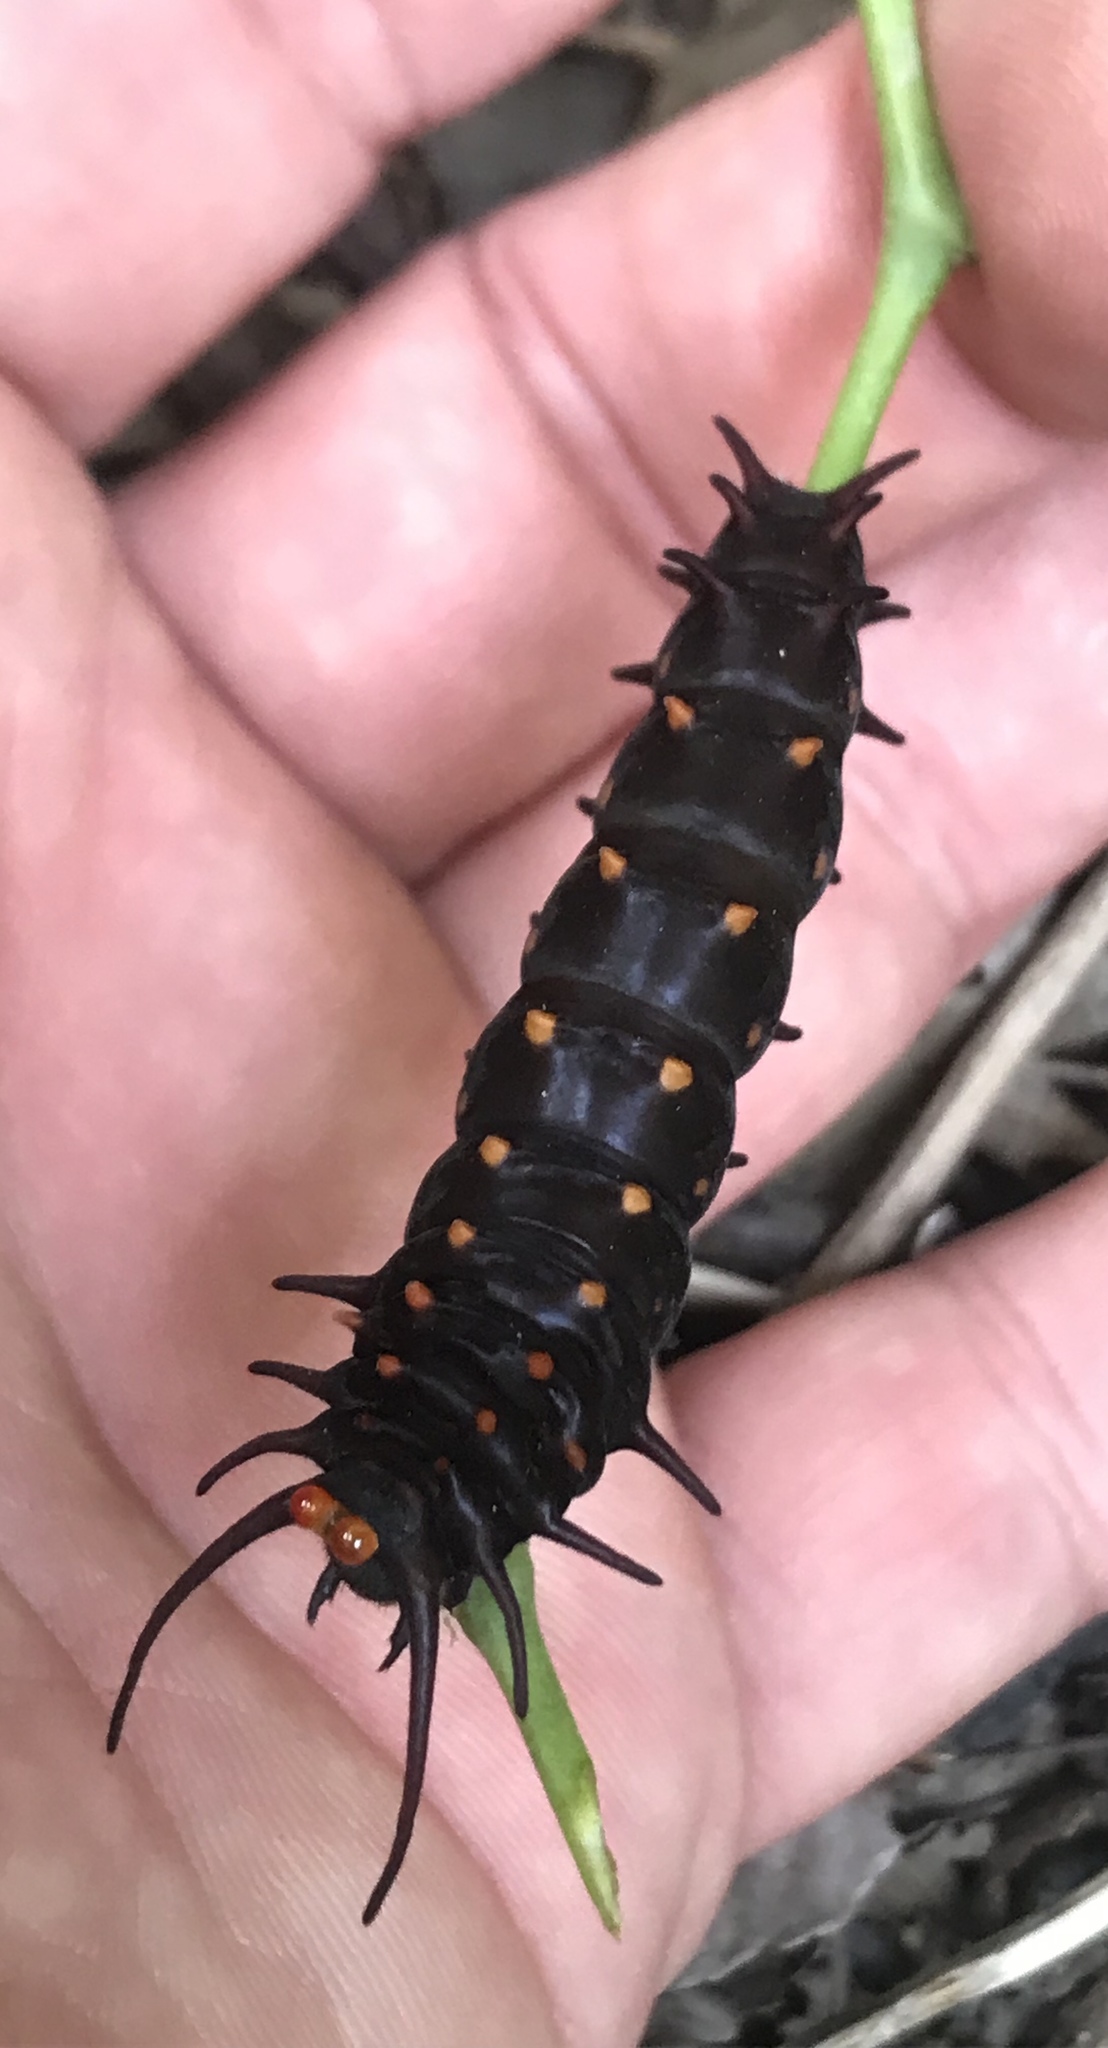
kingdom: Animalia
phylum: Arthropoda
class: Insecta
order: Lepidoptera
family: Papilionidae
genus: Battus
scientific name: Battus philenor
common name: Pipevine swallowtail
